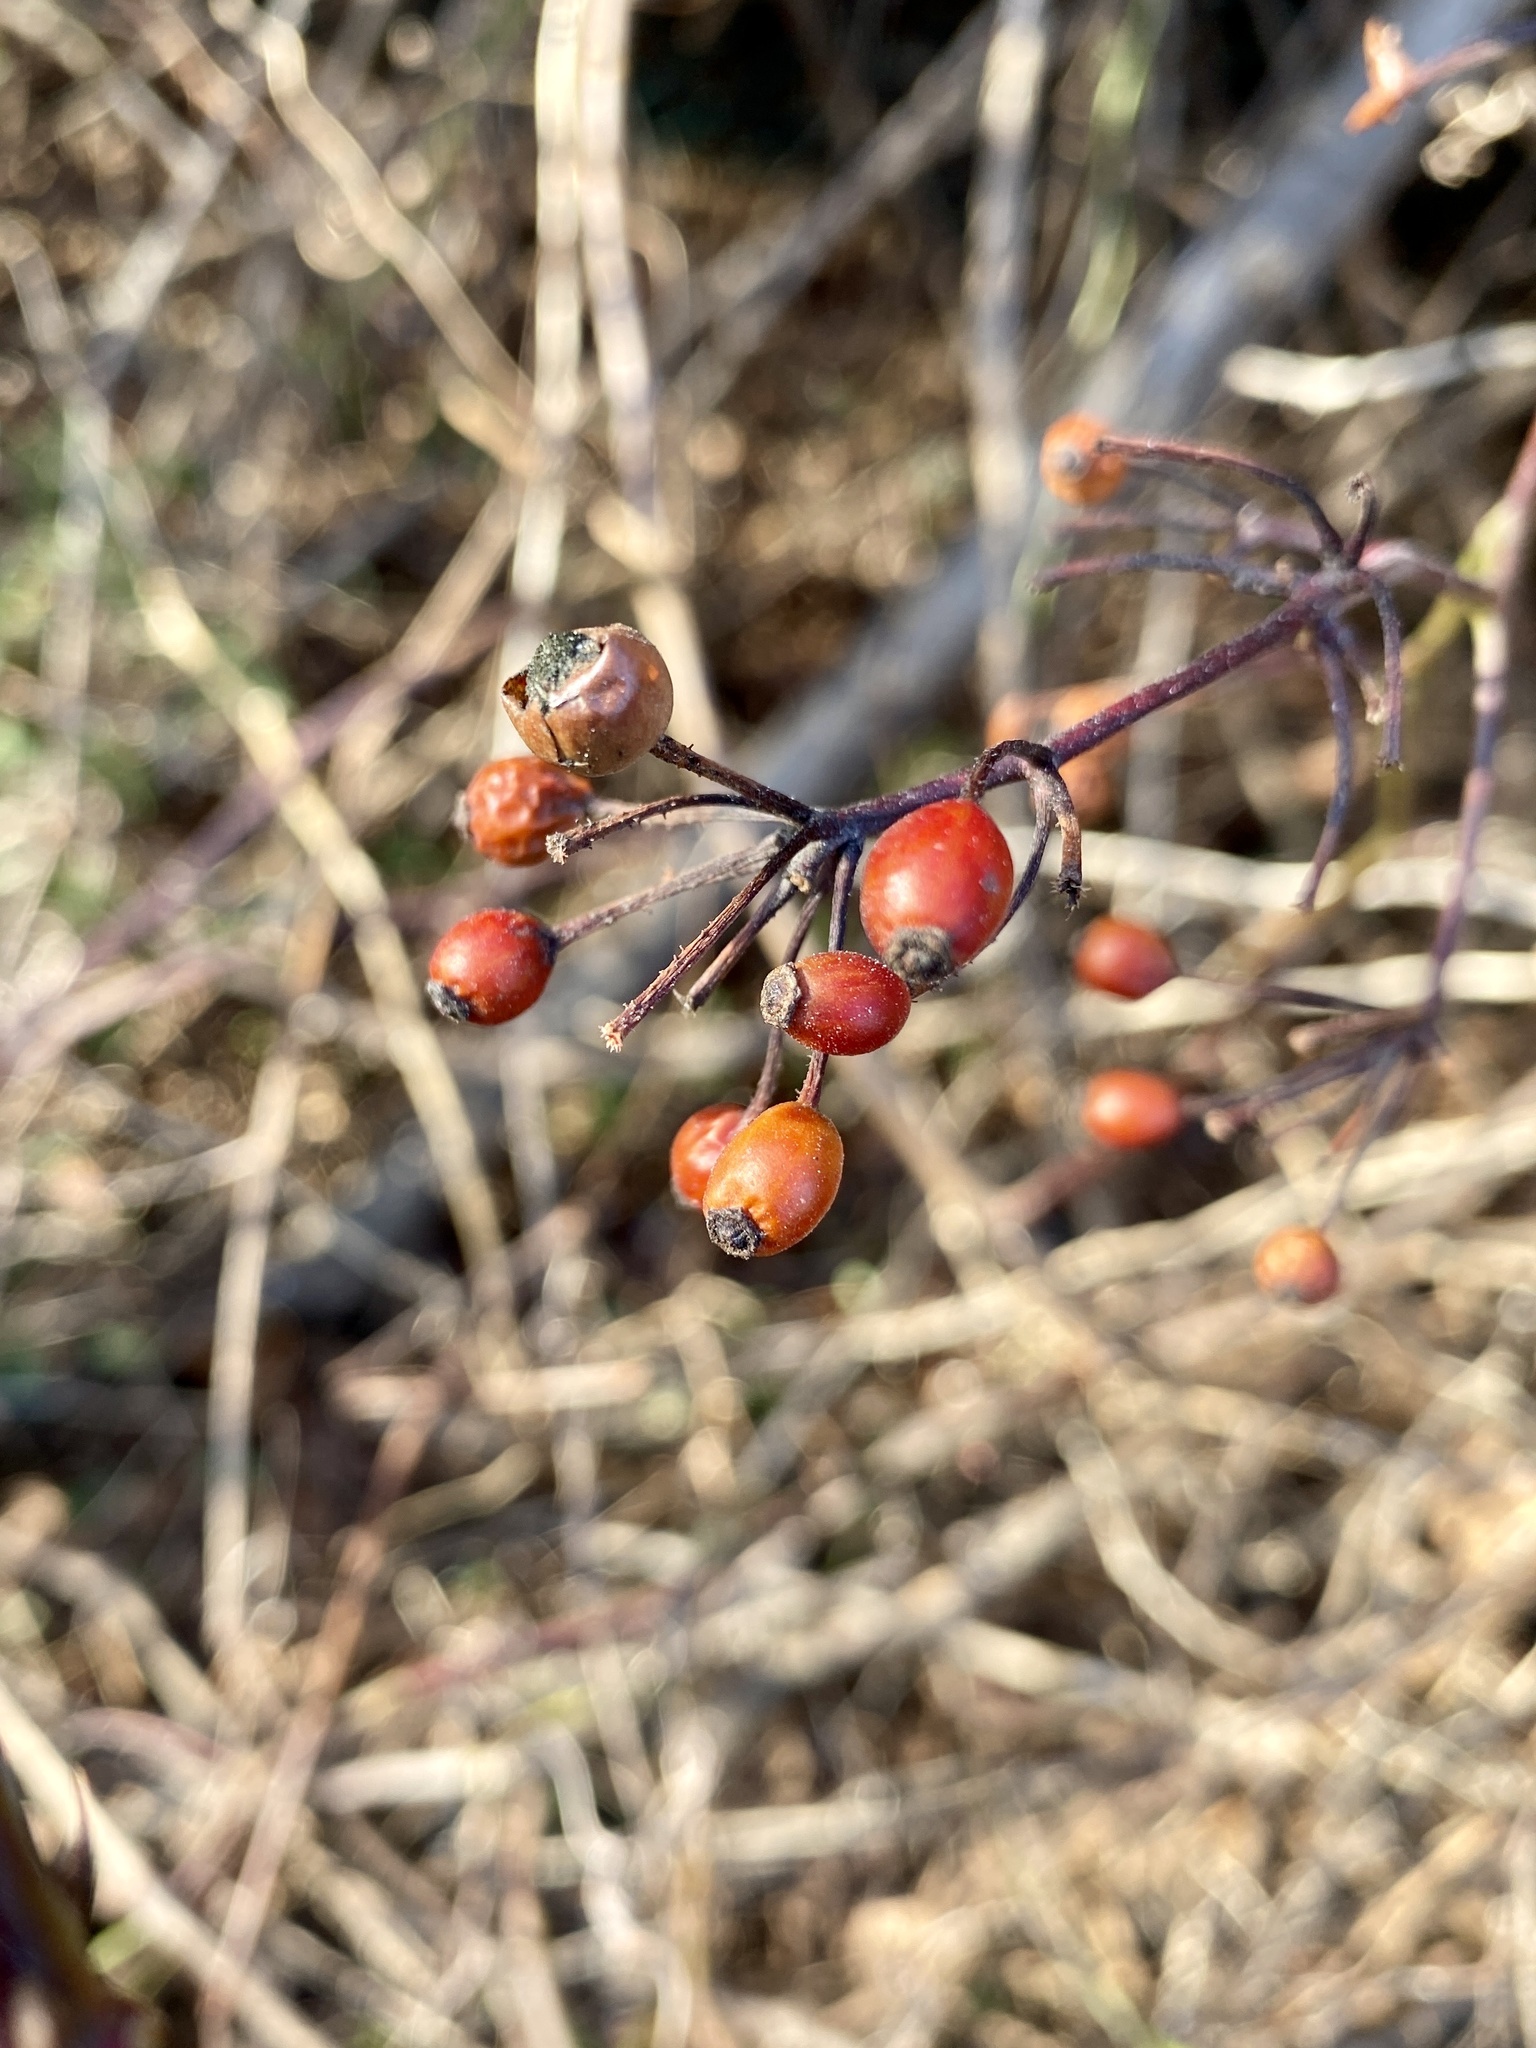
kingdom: Plantae
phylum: Tracheophyta
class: Magnoliopsida
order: Rosales
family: Rosaceae
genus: Rosa
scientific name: Rosa multiflora
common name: Multiflora rose
